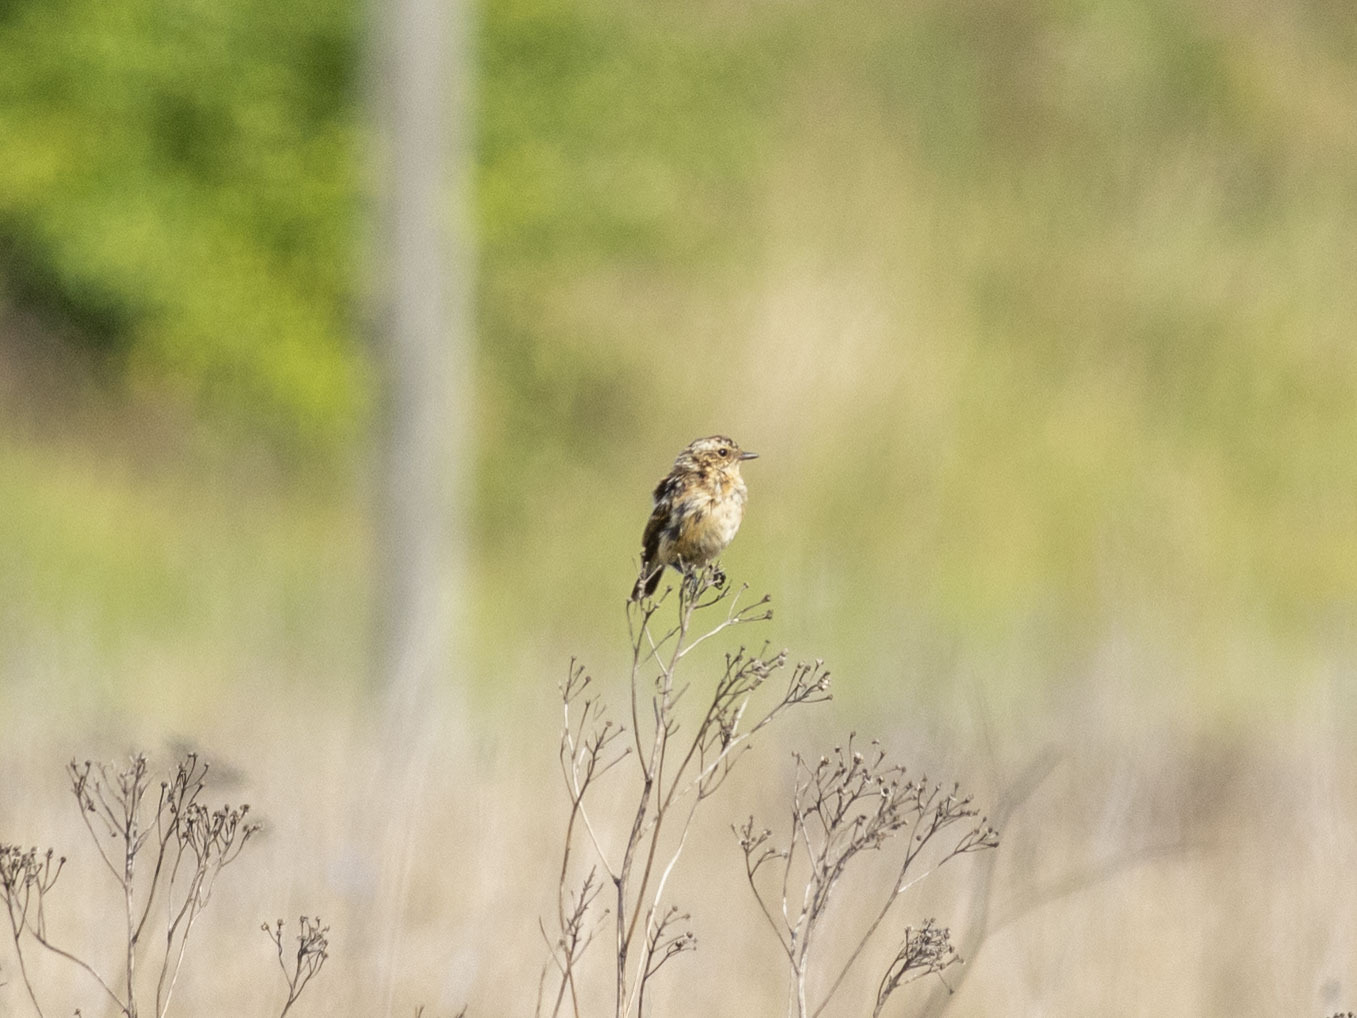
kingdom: Animalia
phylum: Chordata
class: Aves
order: Passeriformes
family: Muscicapidae
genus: Saxicola
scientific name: Saxicola rubetra
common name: Whinchat
